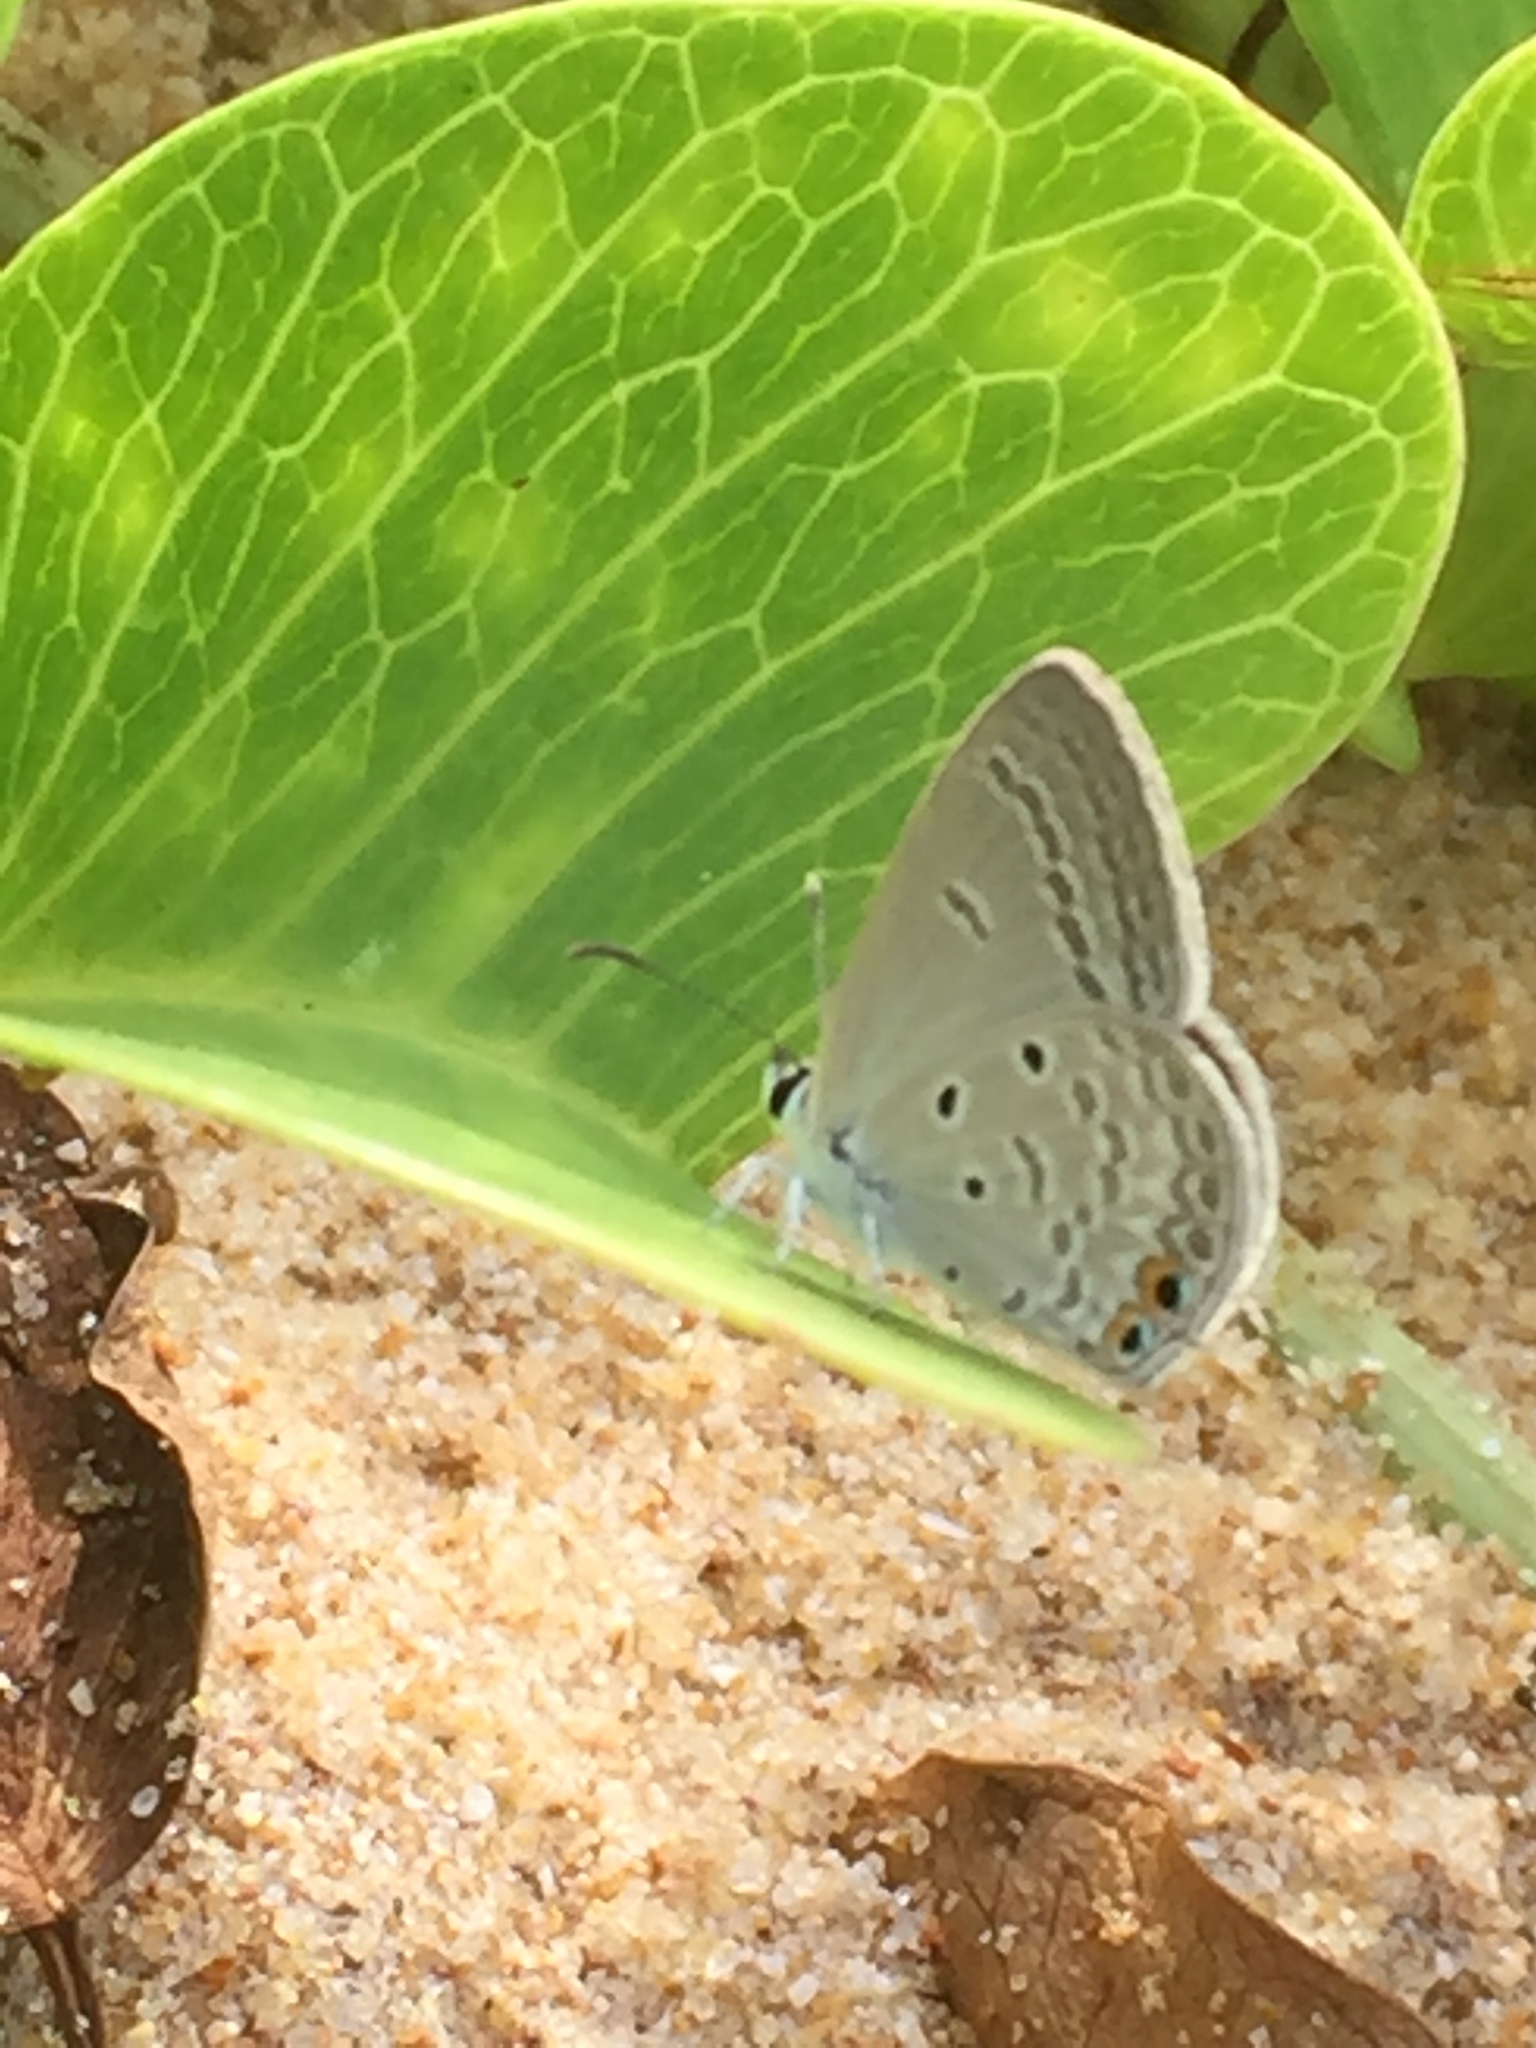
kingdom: Animalia
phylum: Arthropoda
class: Insecta
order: Lepidoptera
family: Lycaenidae
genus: Euchrysops
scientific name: Euchrysops cnejus
